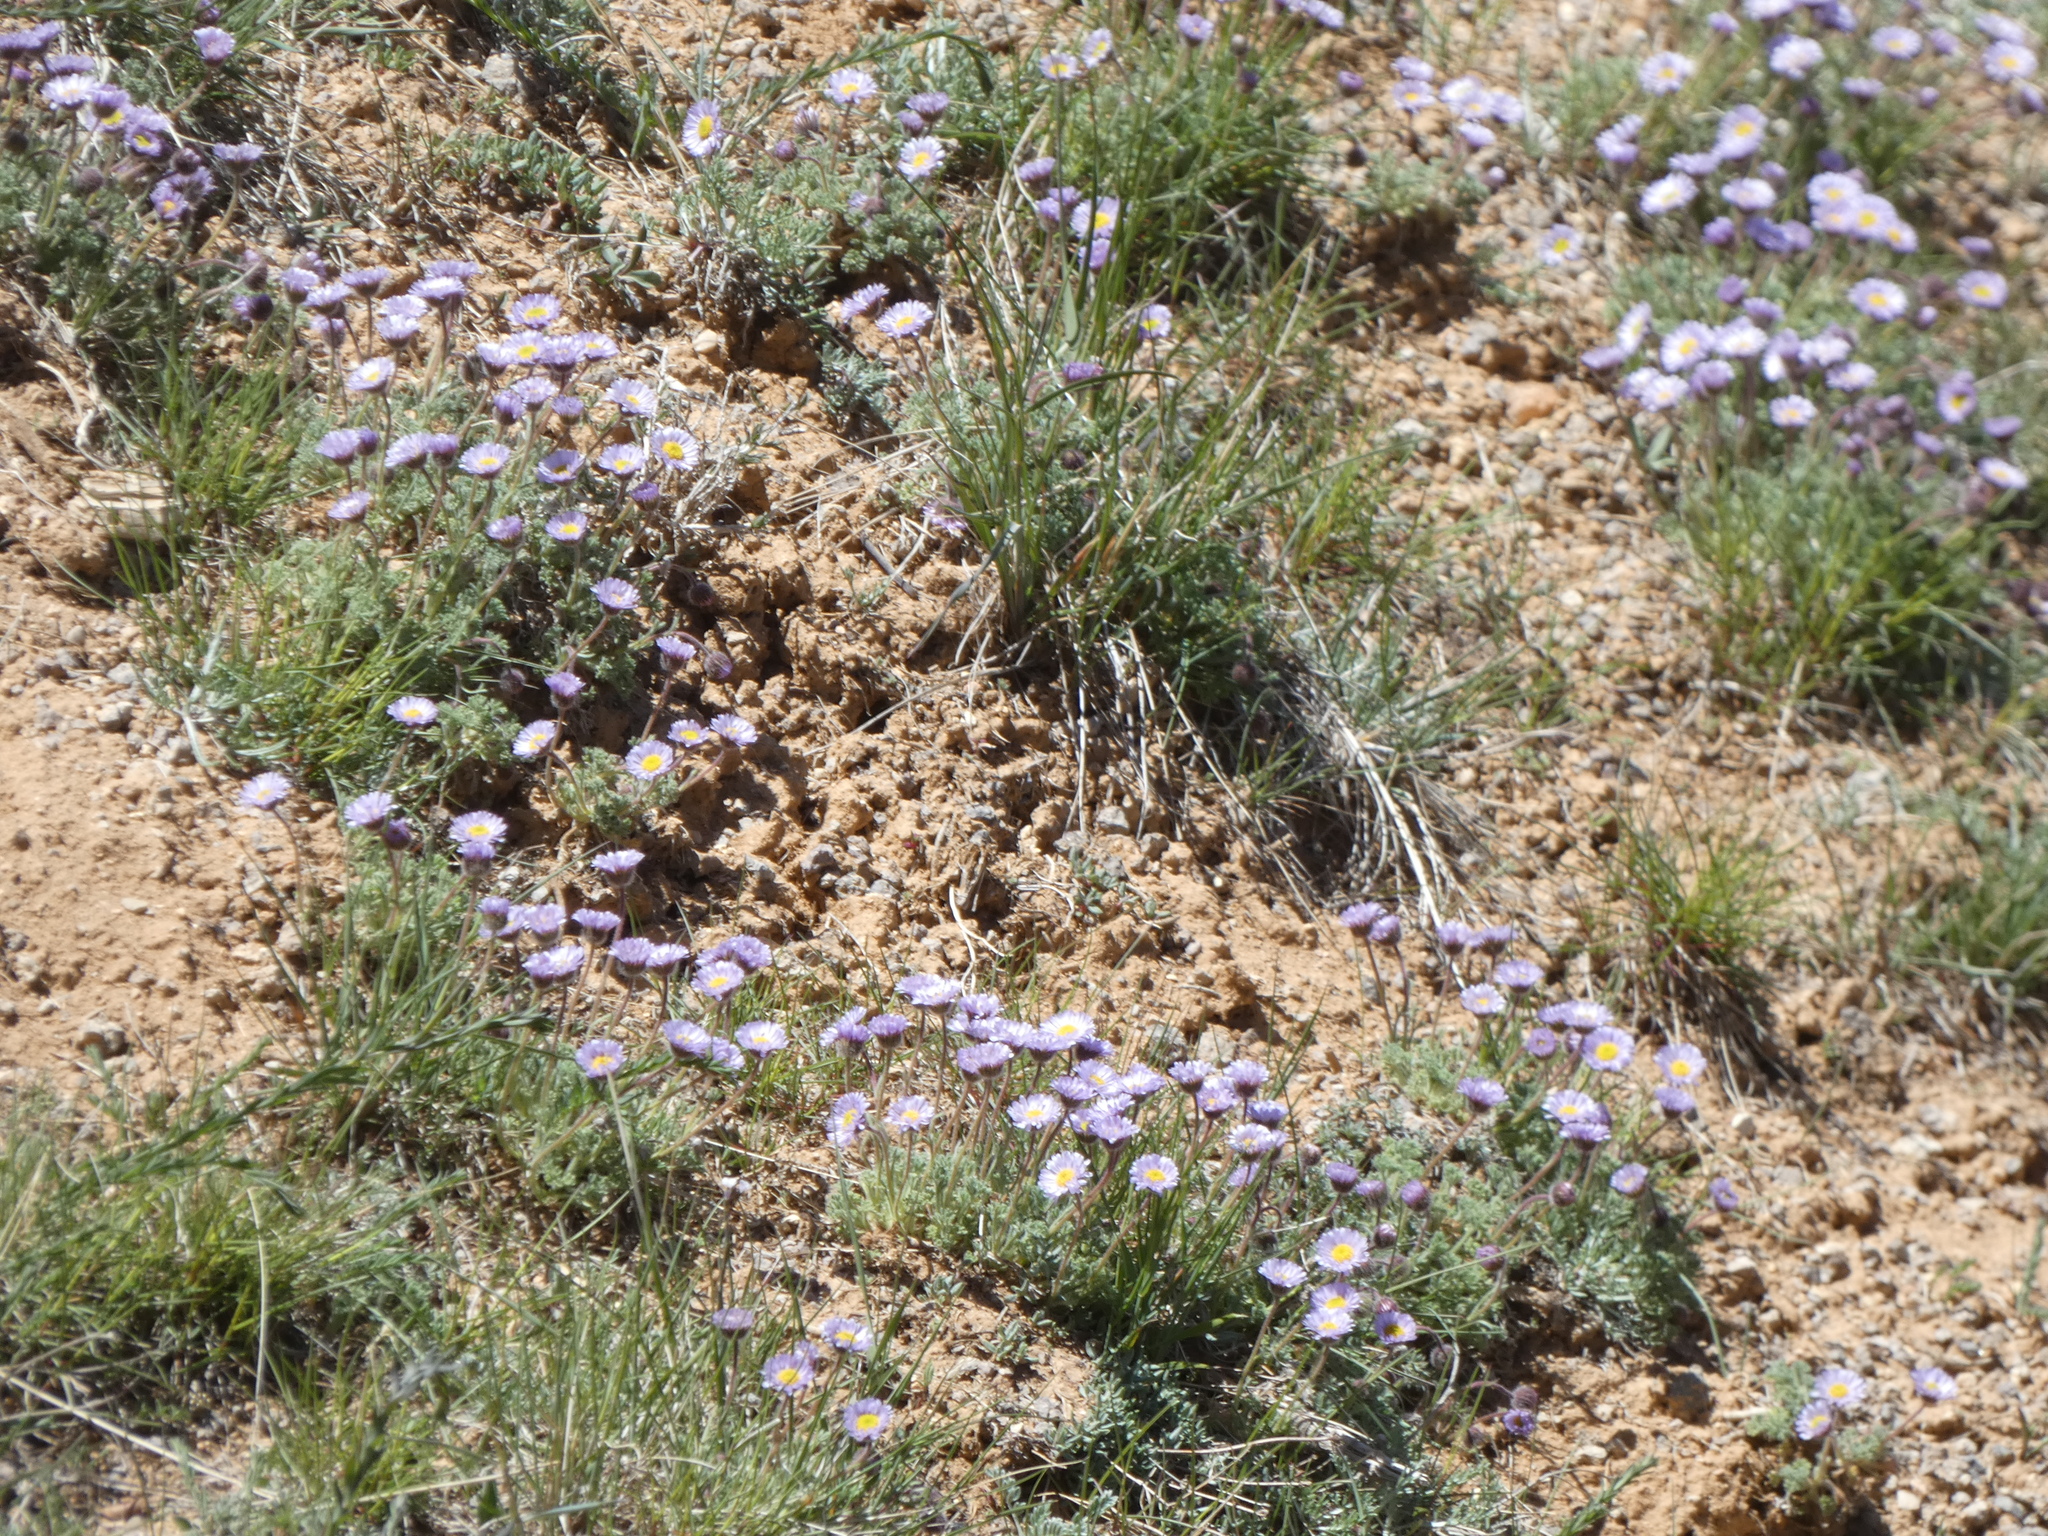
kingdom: Plantae
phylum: Tracheophyta
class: Magnoliopsida
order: Asterales
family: Asteraceae
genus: Erigeron
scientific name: Erigeron compositus
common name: Dwarf mountain fleabane
